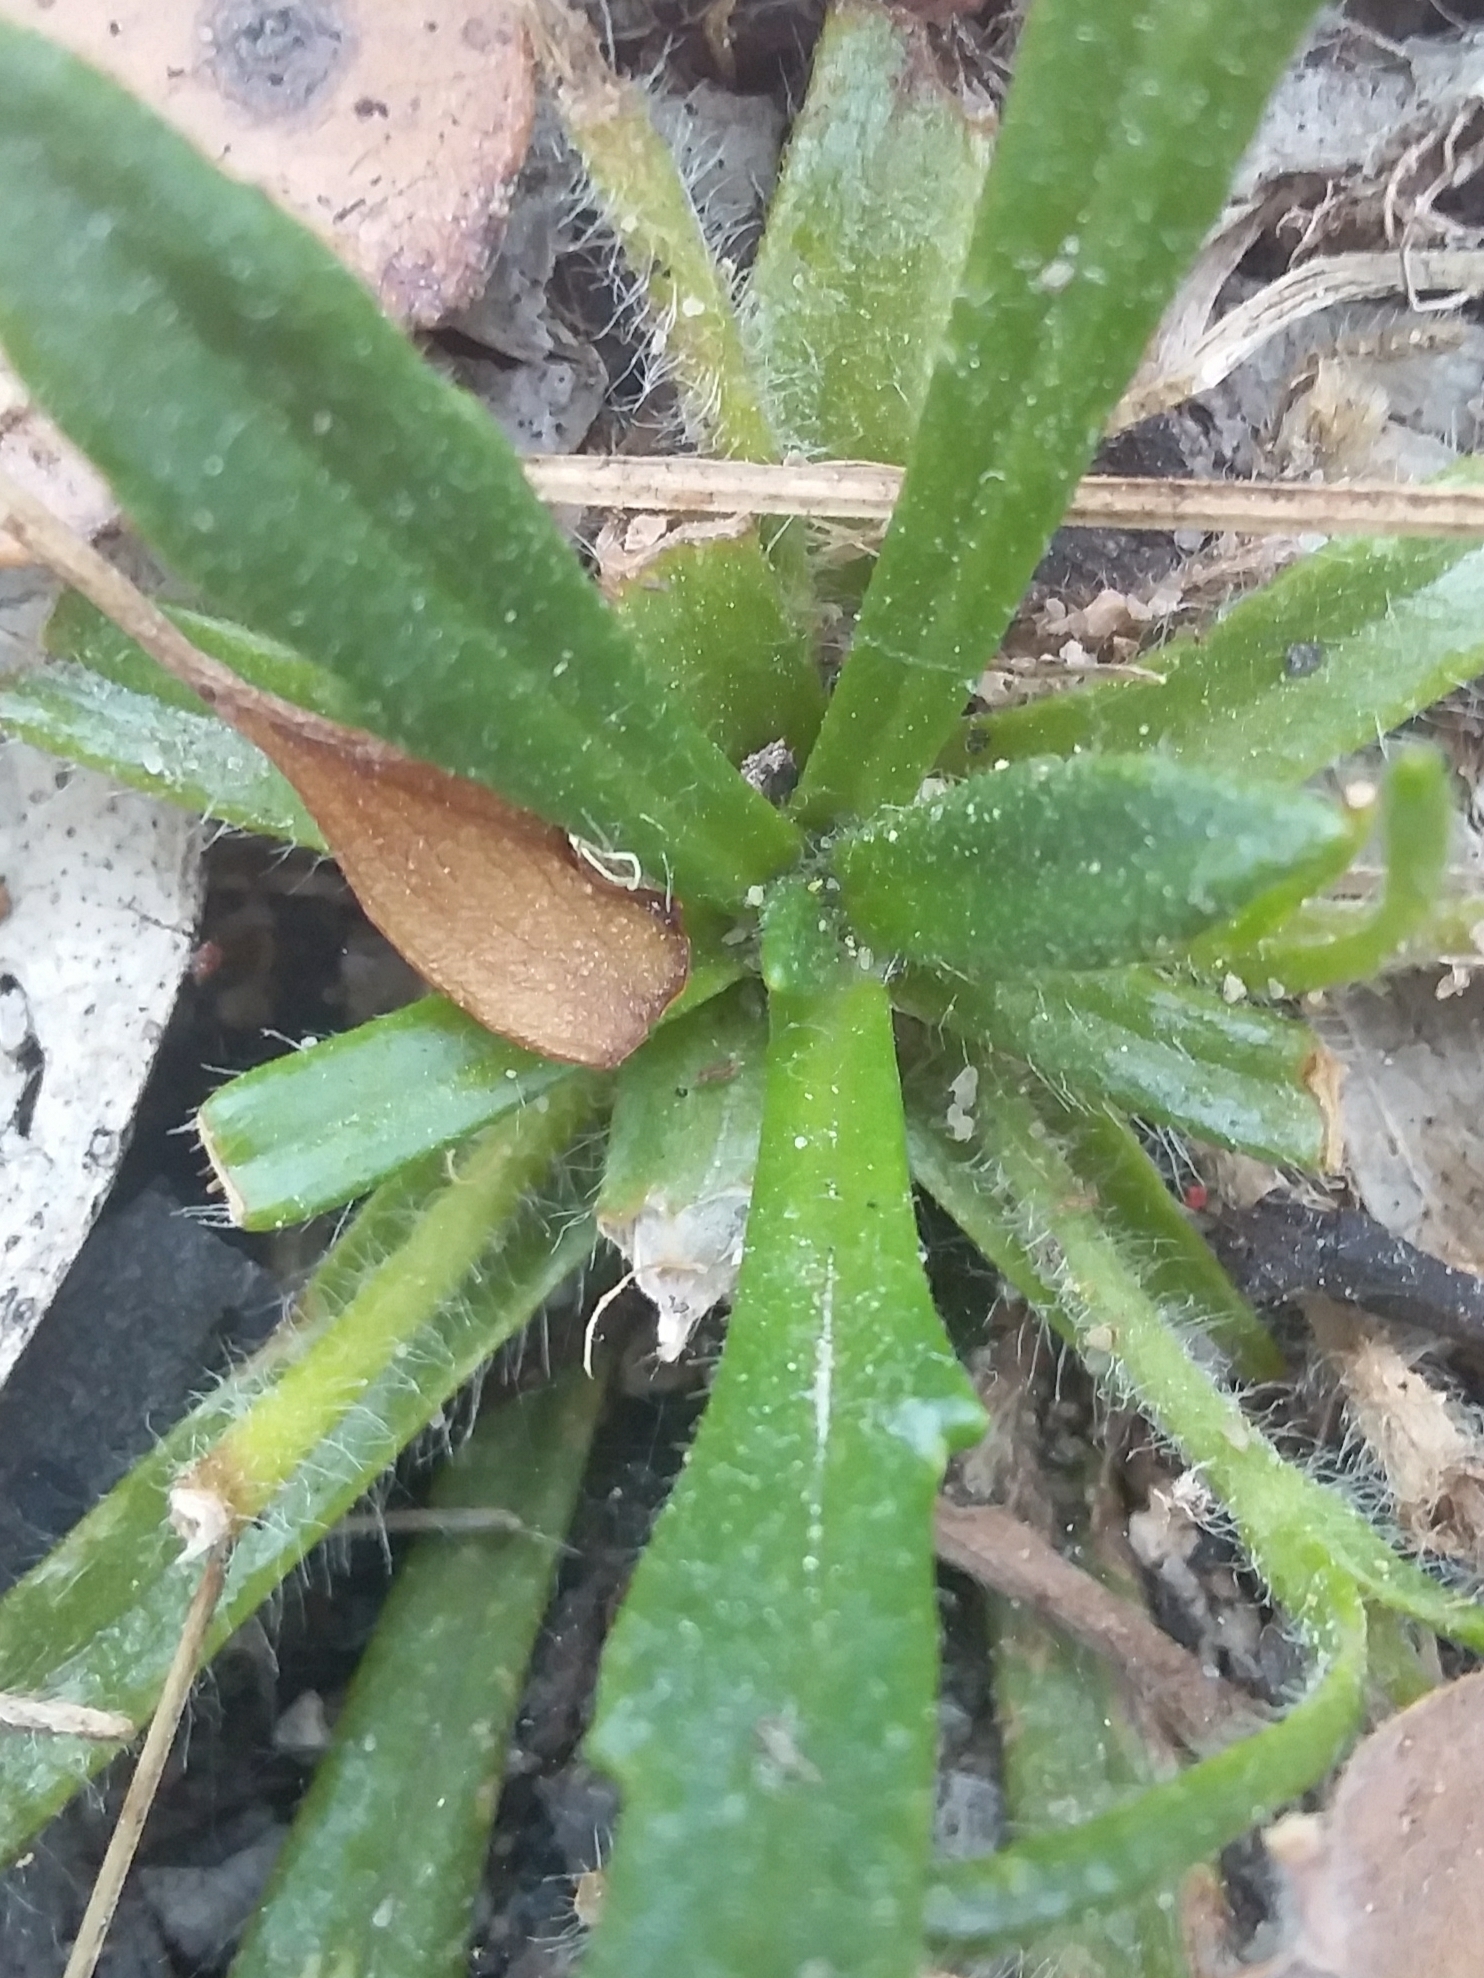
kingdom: Plantae
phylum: Tracheophyta
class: Magnoliopsida
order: Asterales
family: Goodeniaceae
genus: Goodenia
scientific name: Goodenia geniculata
